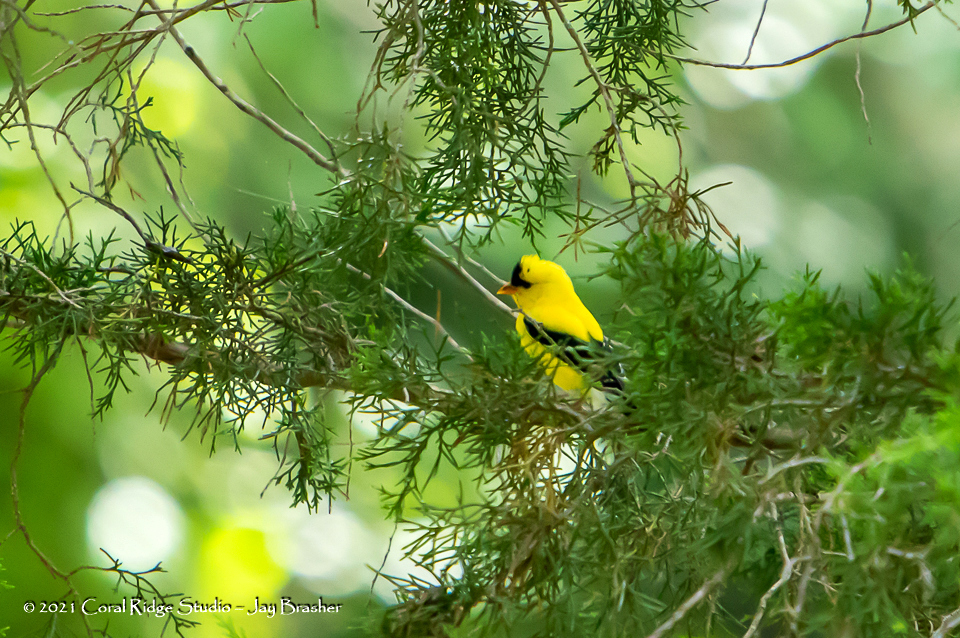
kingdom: Animalia
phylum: Chordata
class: Aves
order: Passeriformes
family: Fringillidae
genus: Spinus
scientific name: Spinus tristis
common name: American goldfinch
